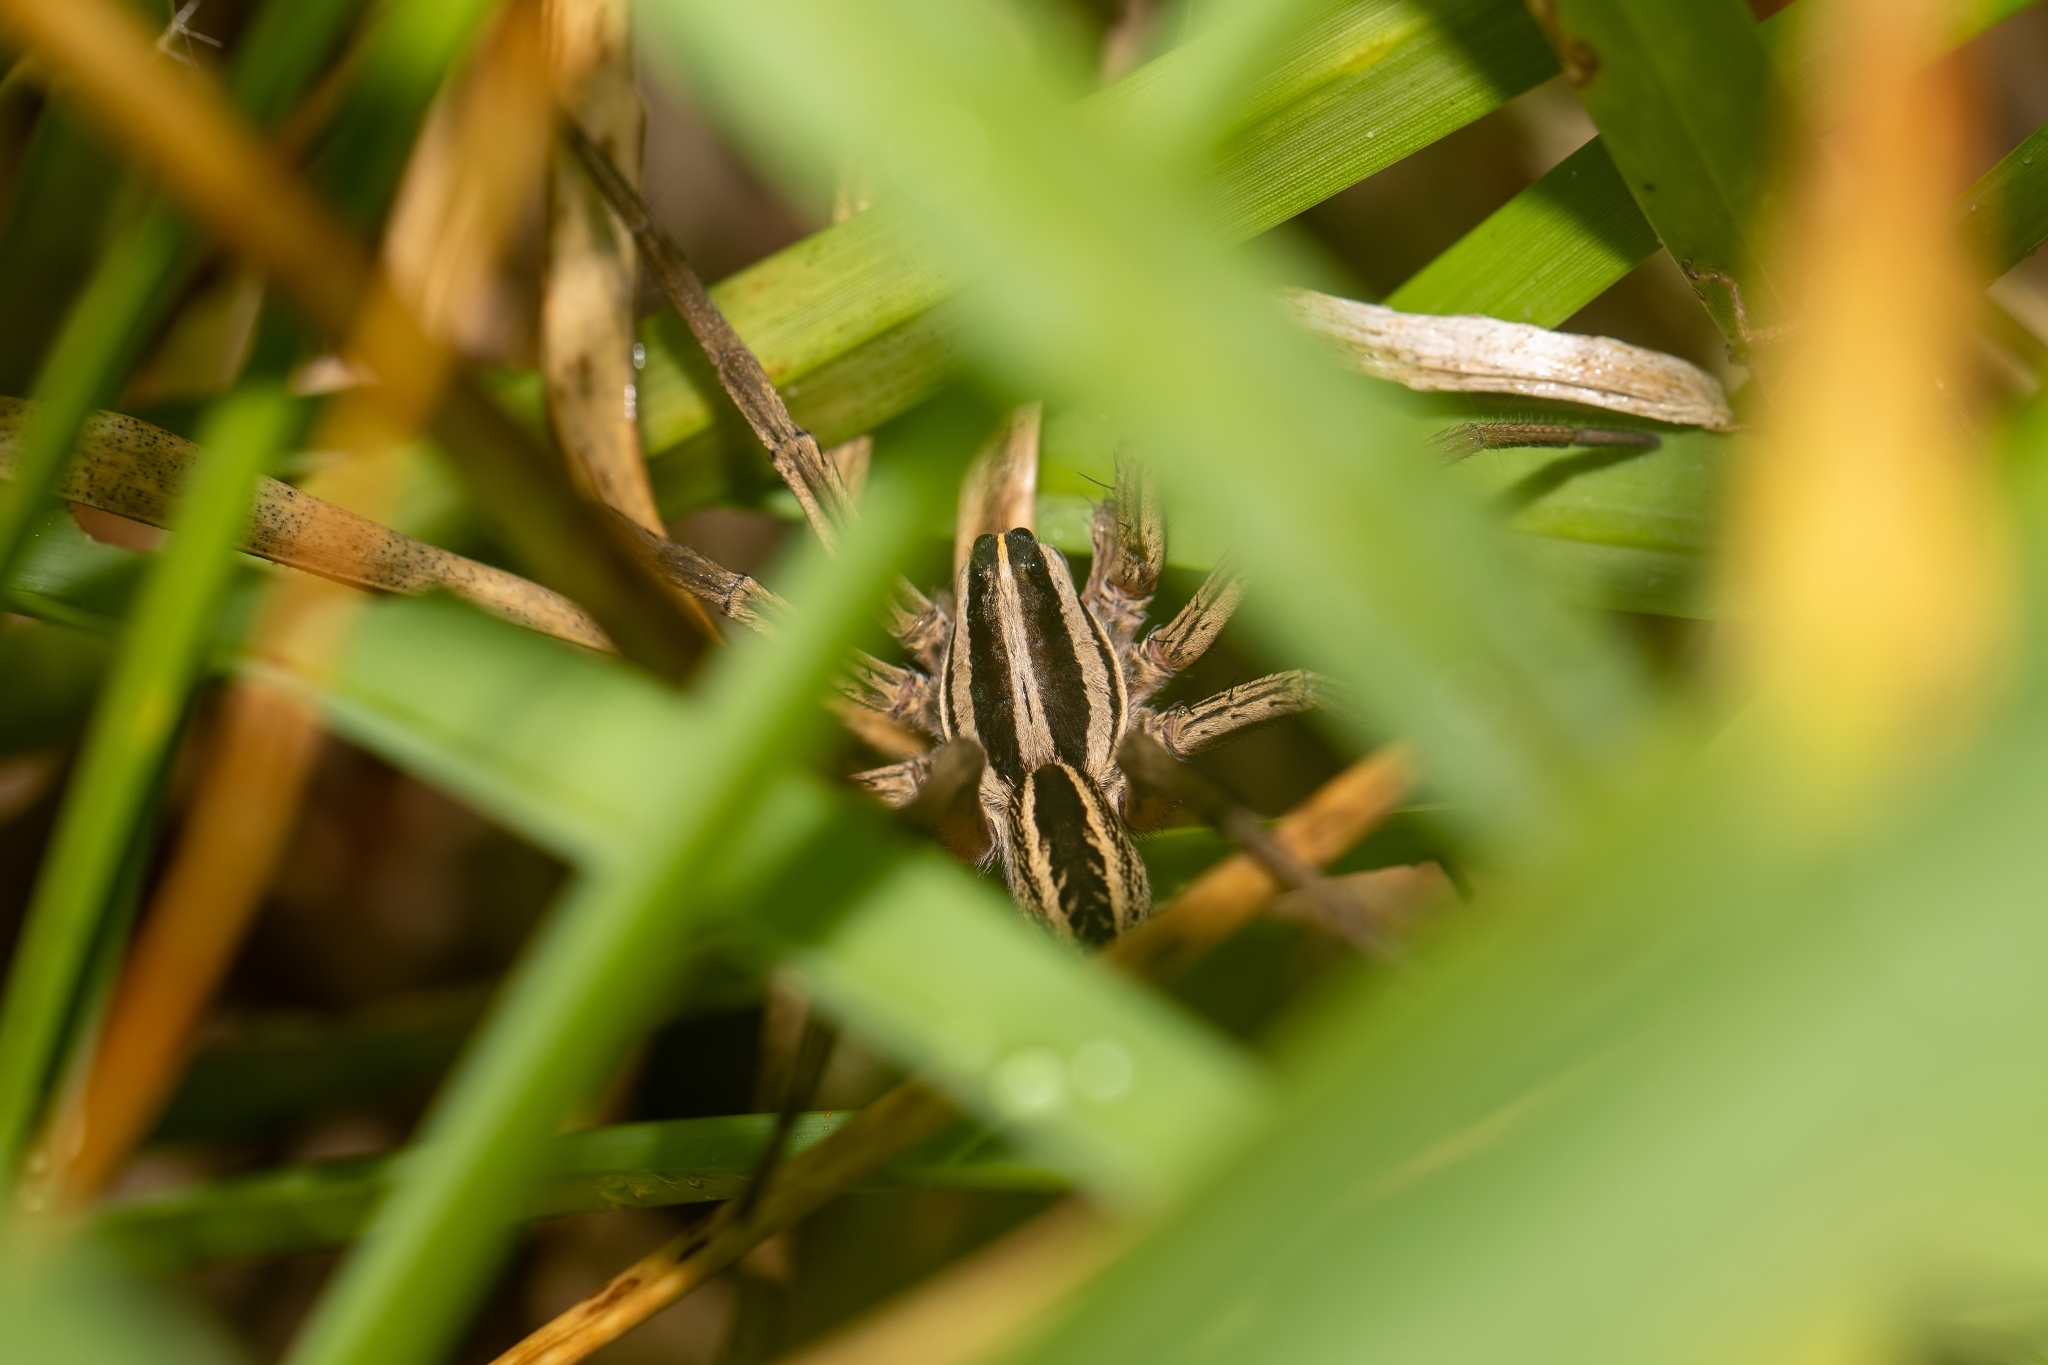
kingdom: Animalia
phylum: Arthropoda
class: Arachnida
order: Araneae
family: Lycosidae
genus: Rabidosa
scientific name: Rabidosa rabida
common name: Rabid wolf spider
